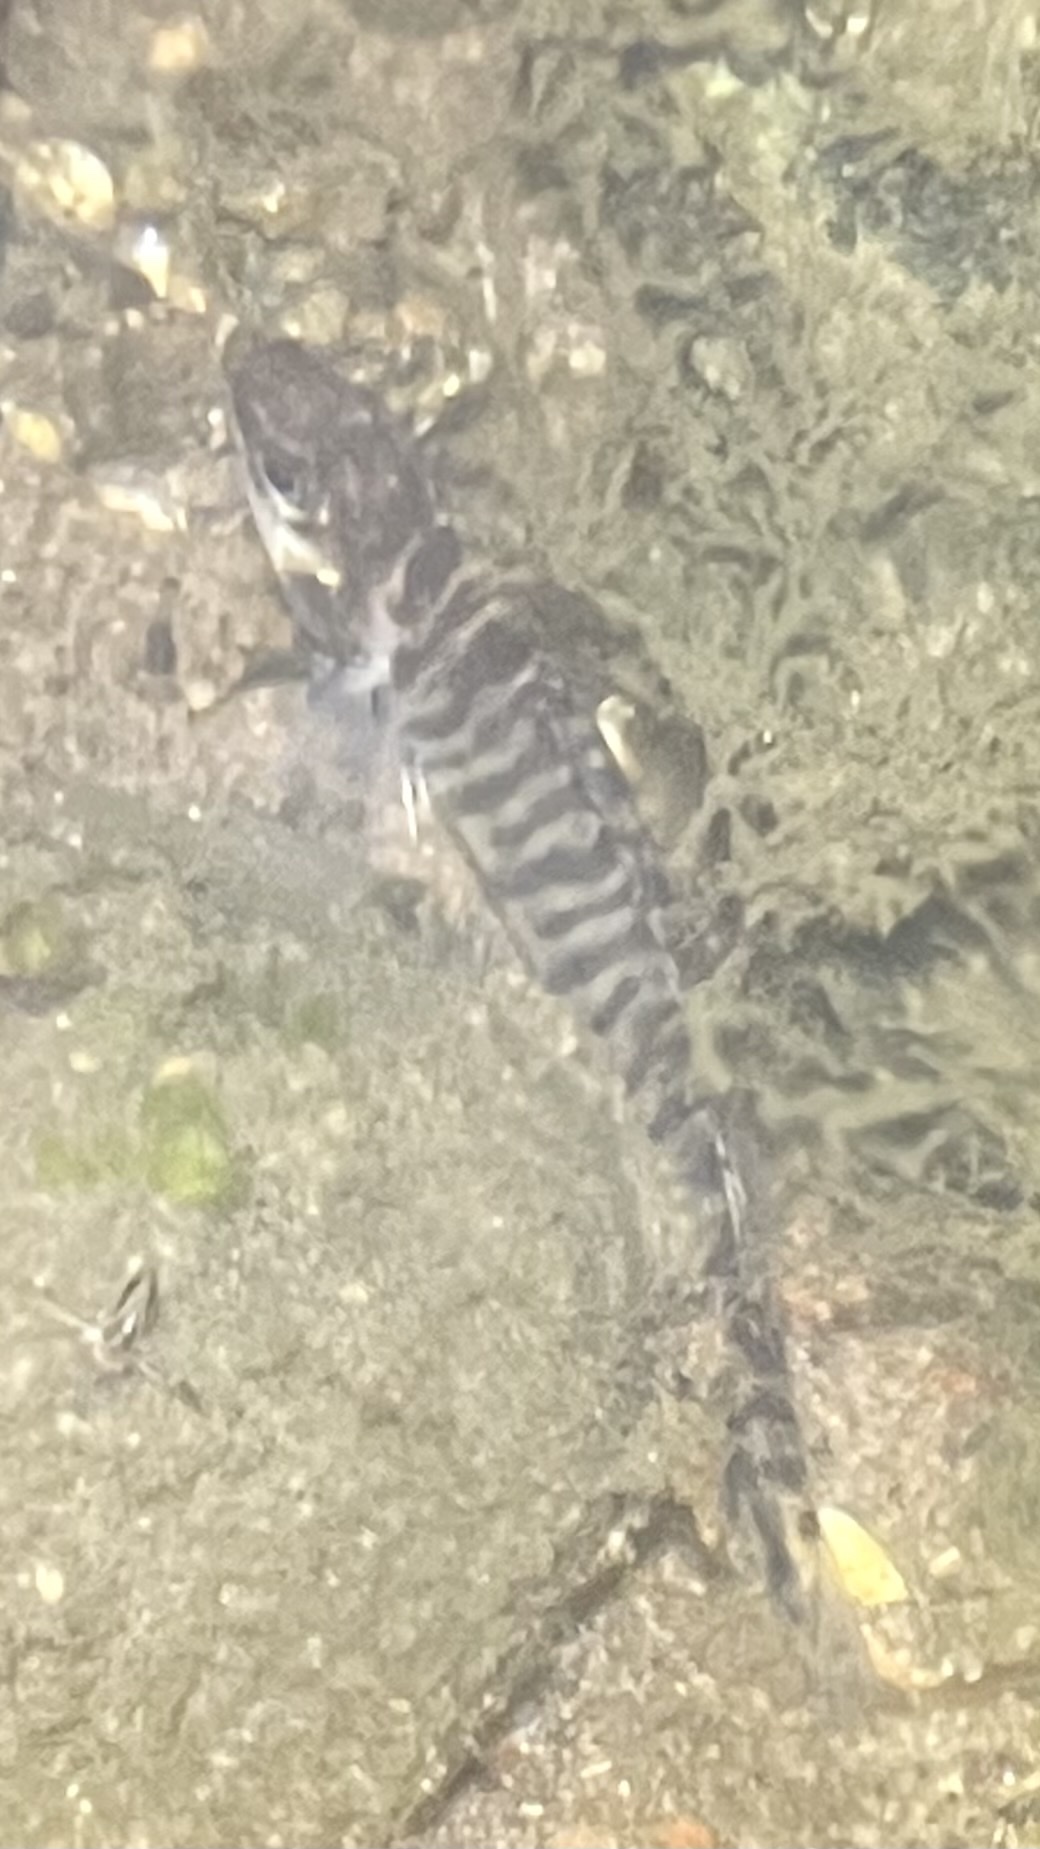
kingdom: Animalia
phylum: Chordata
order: Perciformes
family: Percidae
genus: Percina
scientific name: Percina caprodes
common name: Logperch
